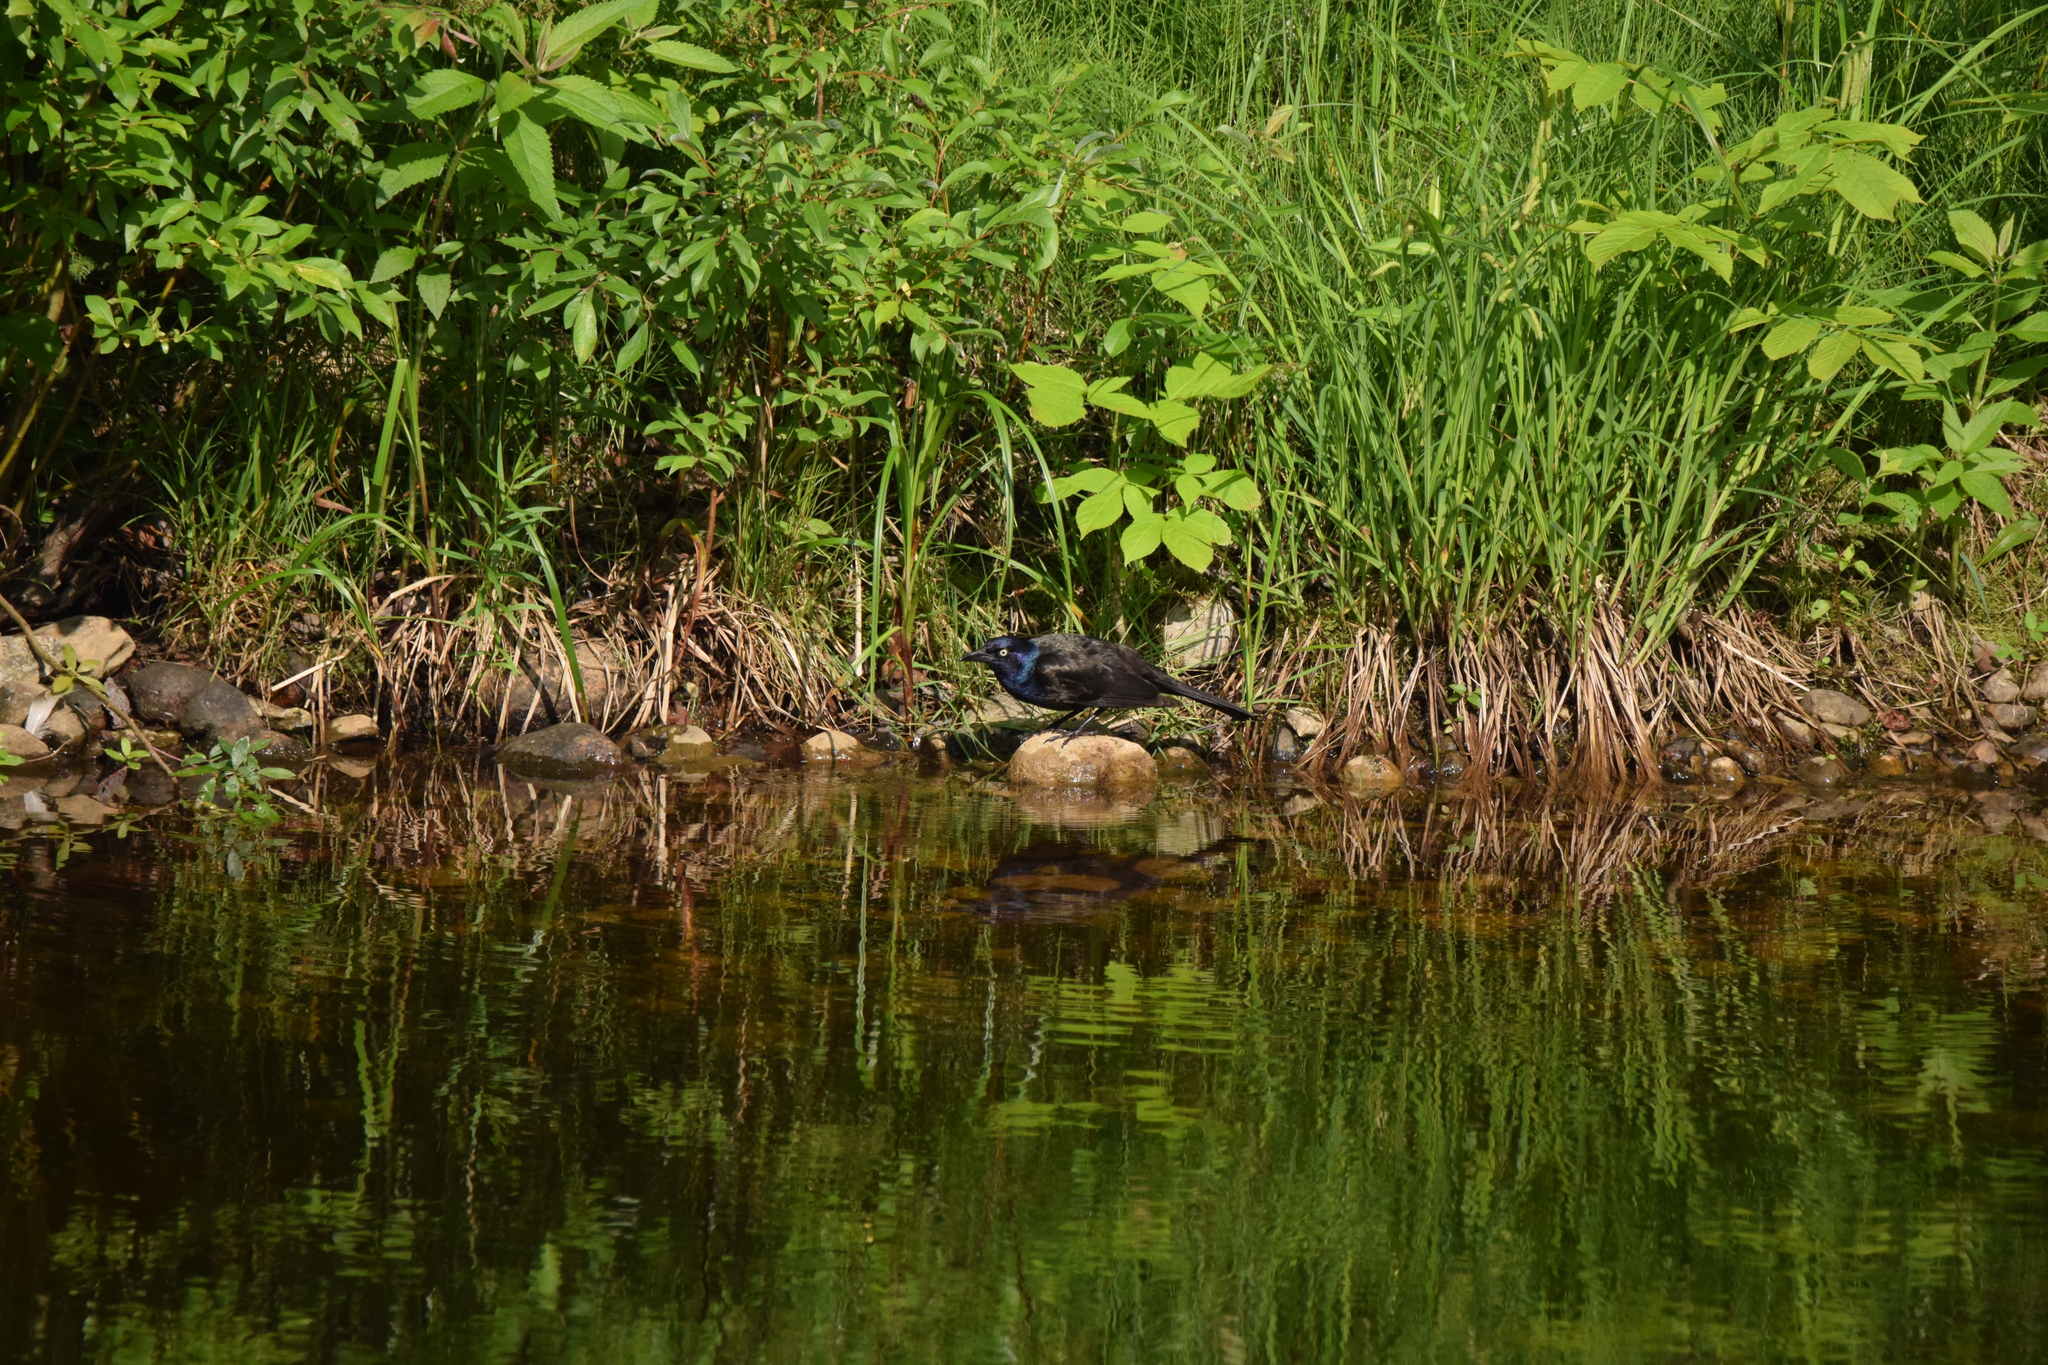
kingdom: Animalia
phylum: Chordata
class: Aves
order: Passeriformes
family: Icteridae
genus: Quiscalus
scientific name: Quiscalus quiscula
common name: Common grackle
